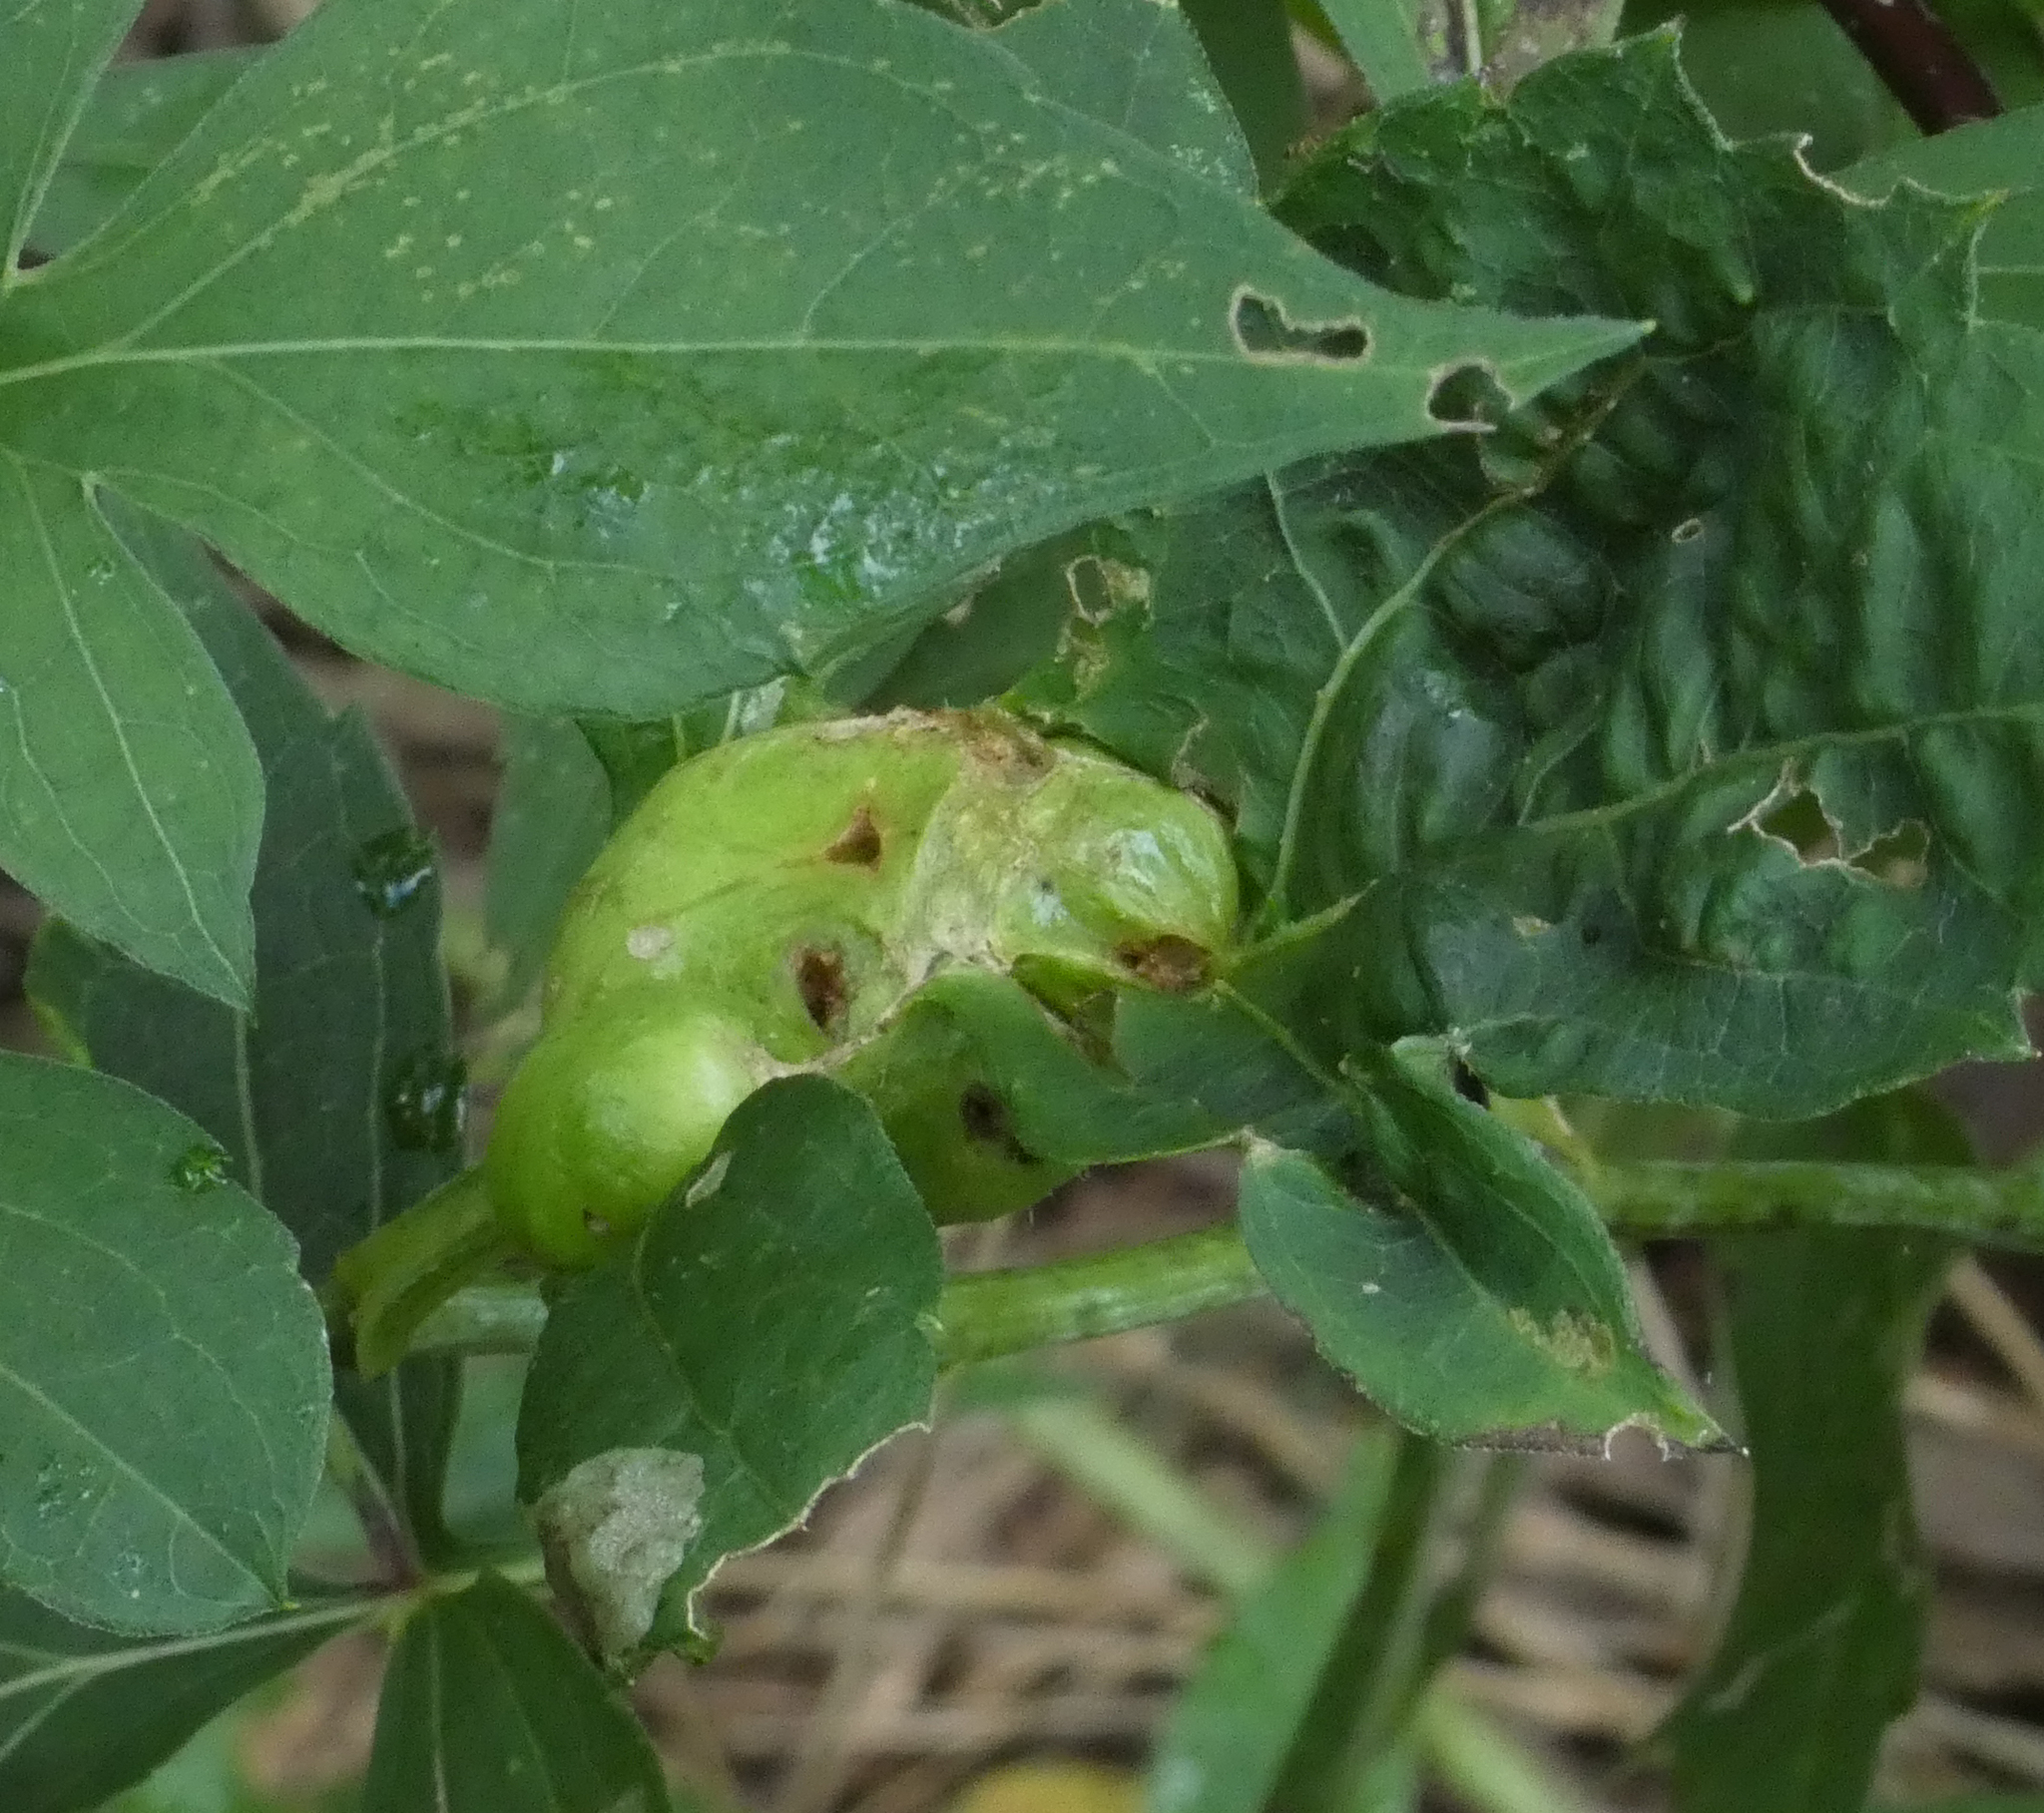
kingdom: Animalia
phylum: Arthropoda
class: Insecta
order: Diptera
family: Cecidomyiidae
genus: Asphondylia
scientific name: Asphondylia rudbeckiaeconspicua
